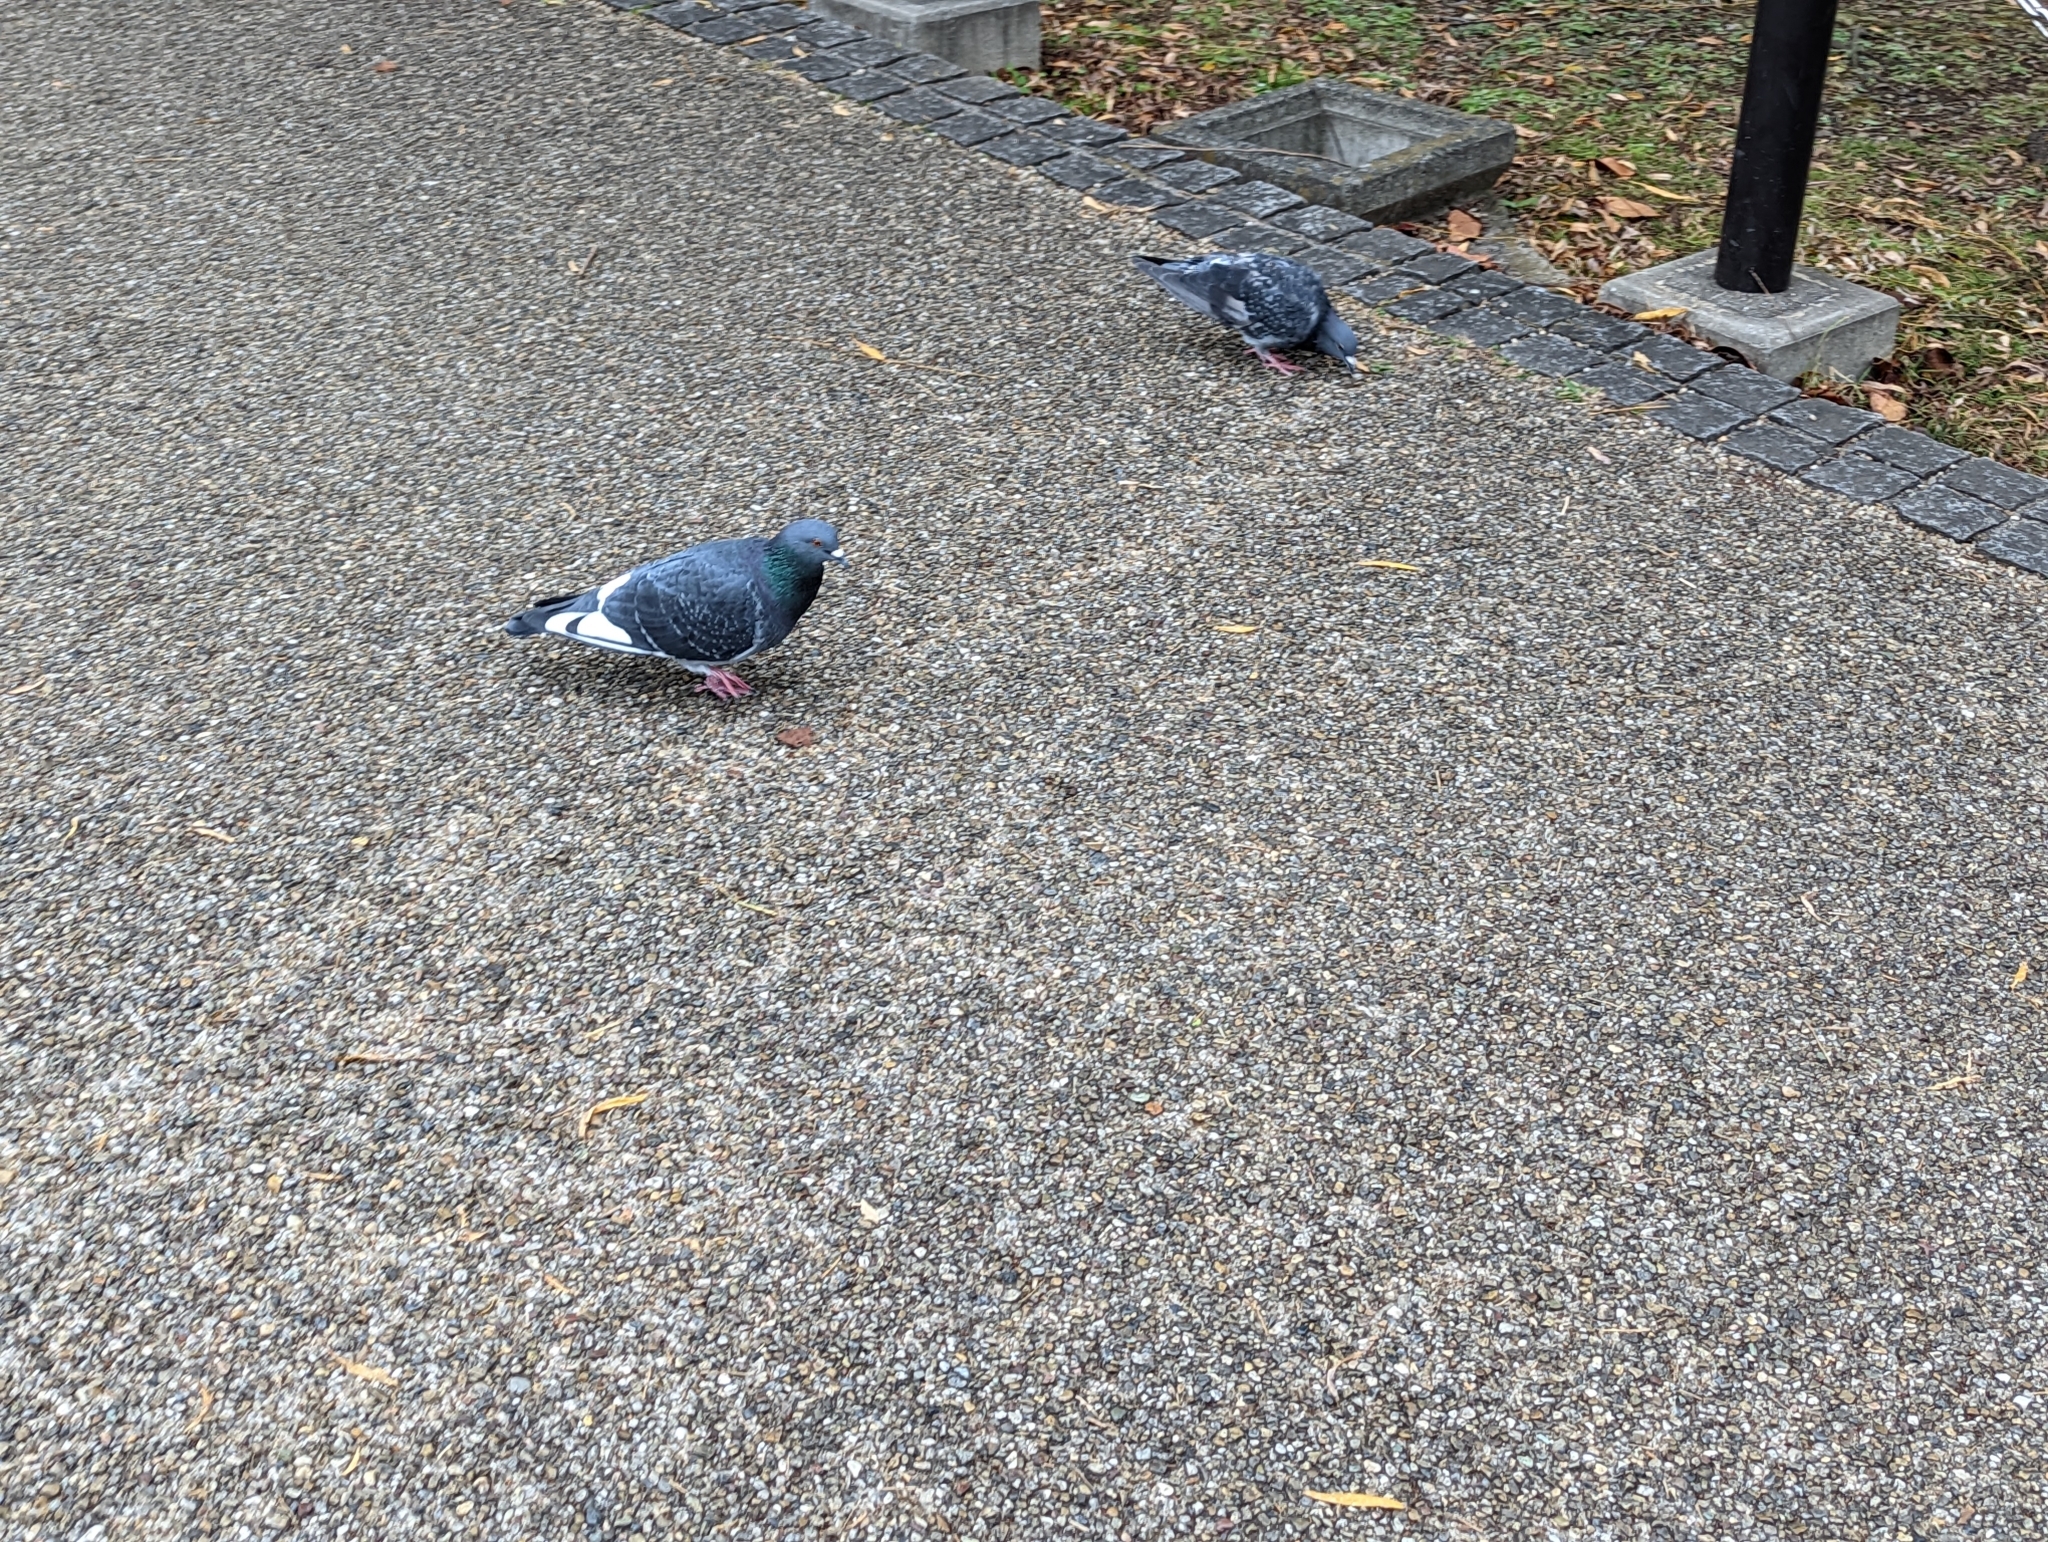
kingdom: Animalia
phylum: Chordata
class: Aves
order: Columbiformes
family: Columbidae
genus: Columba
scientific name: Columba livia
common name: Rock pigeon
